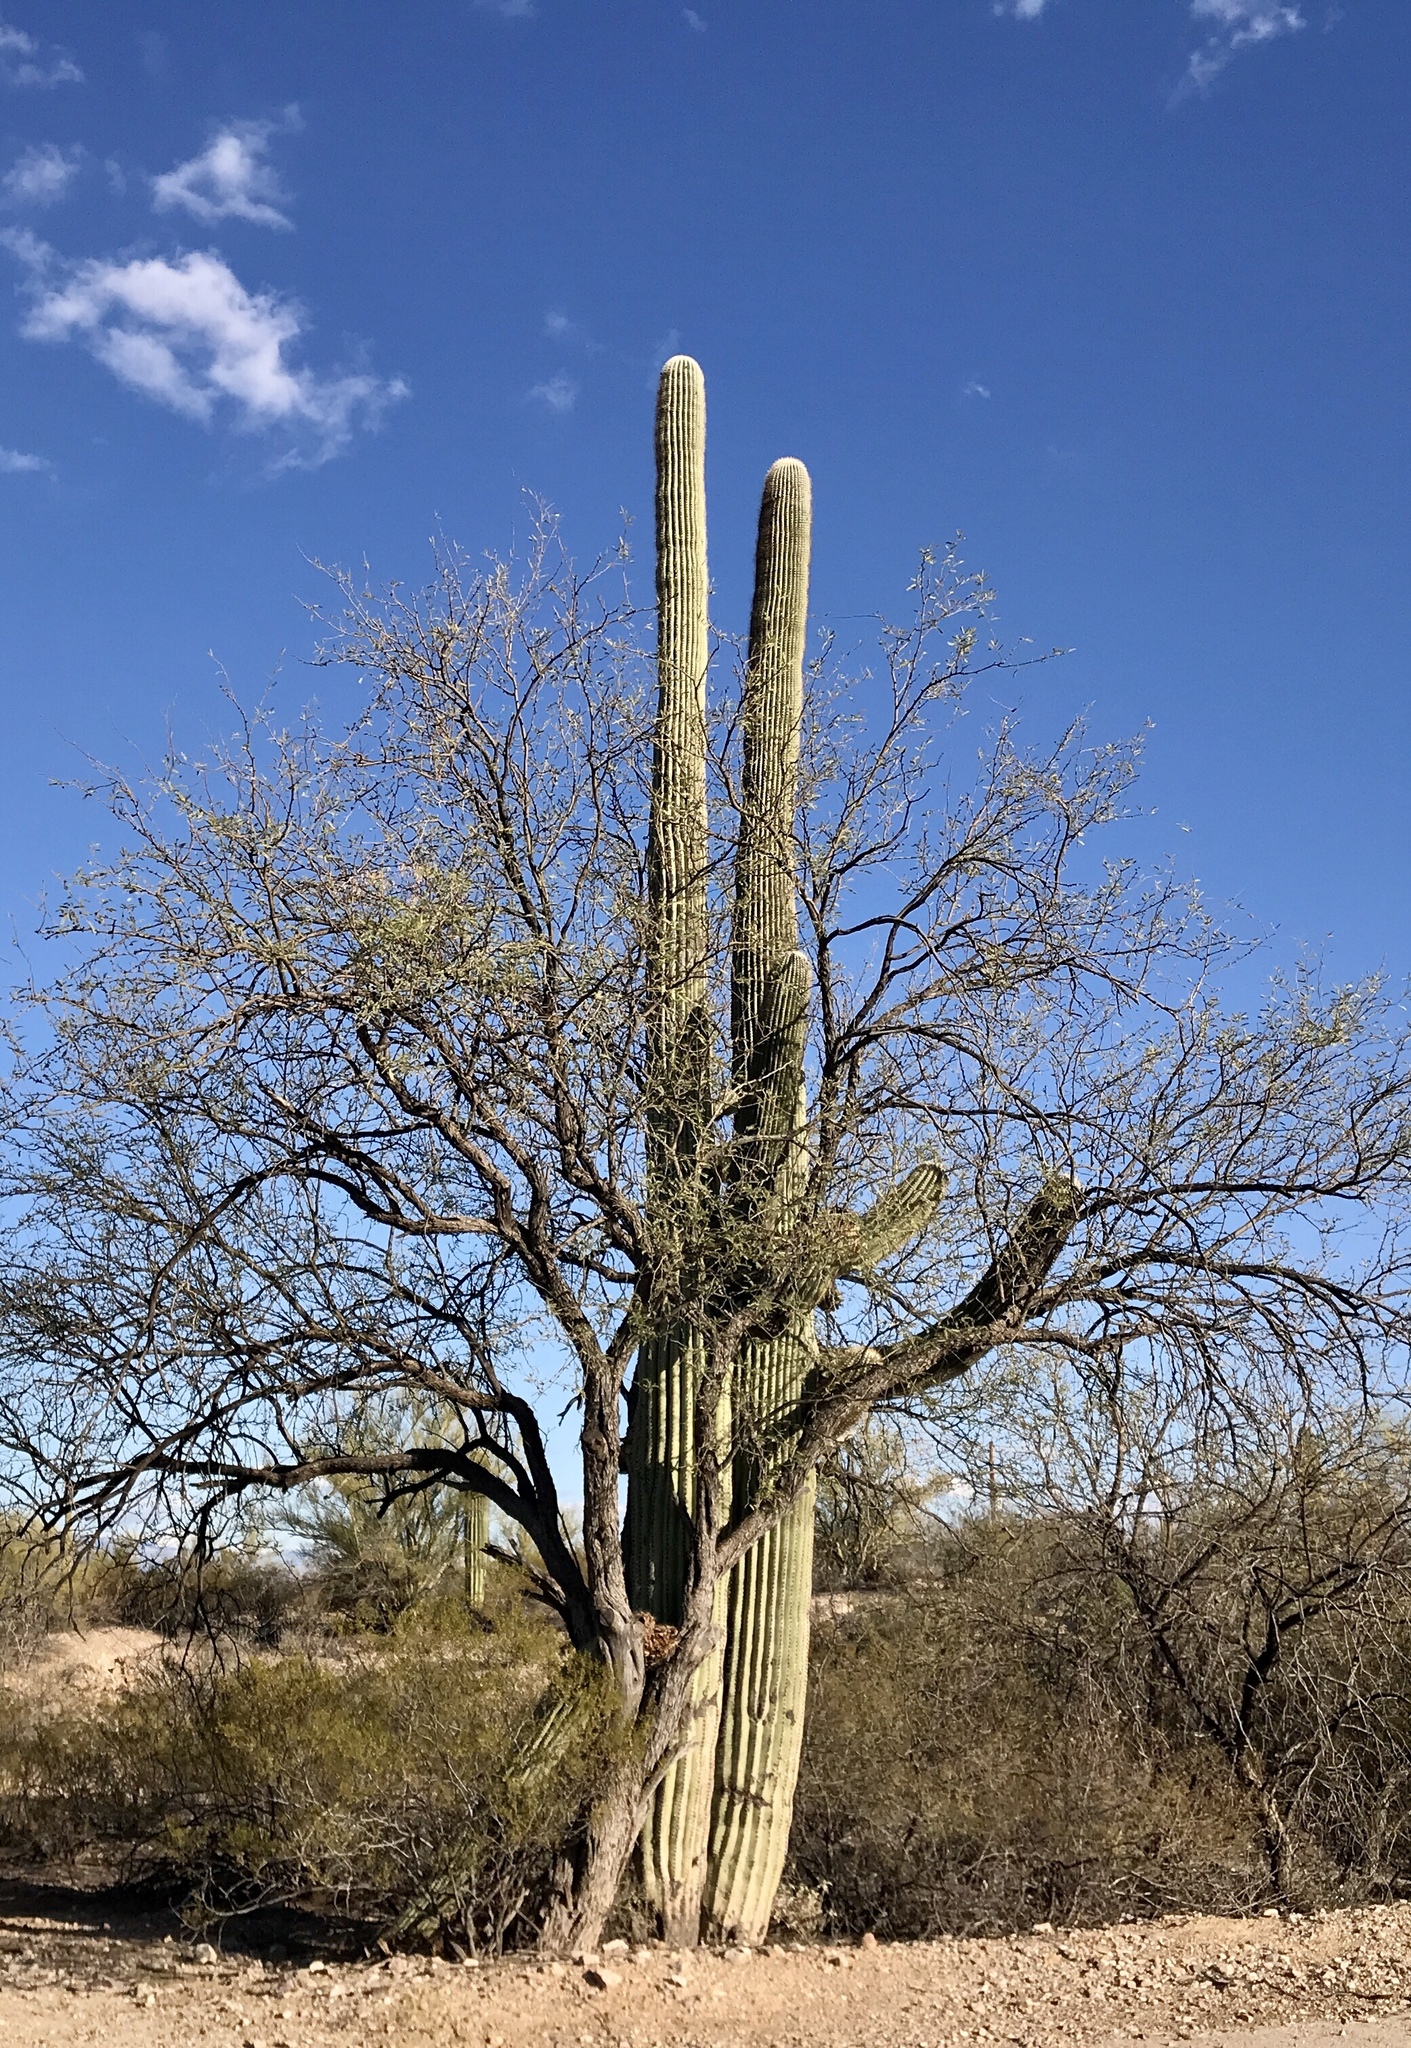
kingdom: Plantae
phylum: Tracheophyta
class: Magnoliopsida
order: Caryophyllales
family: Cactaceae
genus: Carnegiea
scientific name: Carnegiea gigantea
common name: Saguaro
